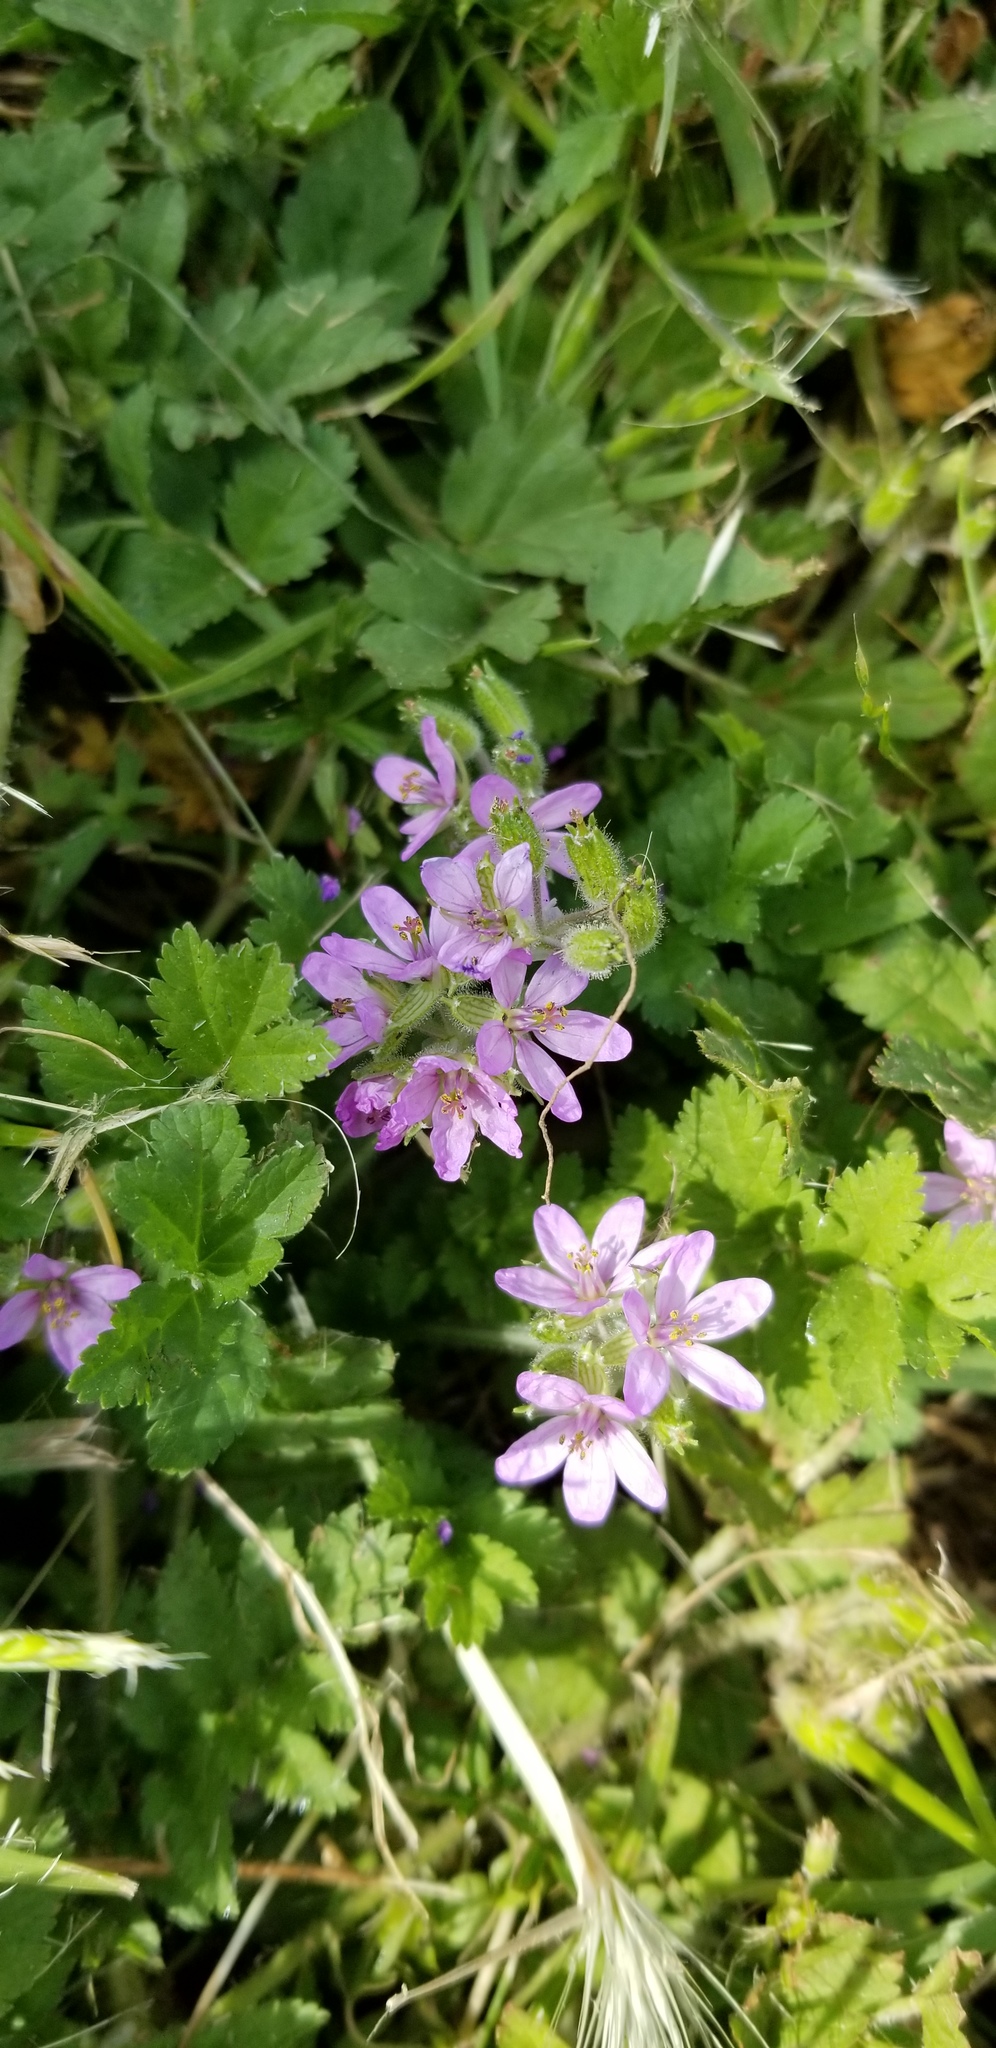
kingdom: Plantae
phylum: Tracheophyta
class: Magnoliopsida
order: Geraniales
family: Geraniaceae
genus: Erodium
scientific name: Erodium moschatum
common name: Musk stork's-bill
